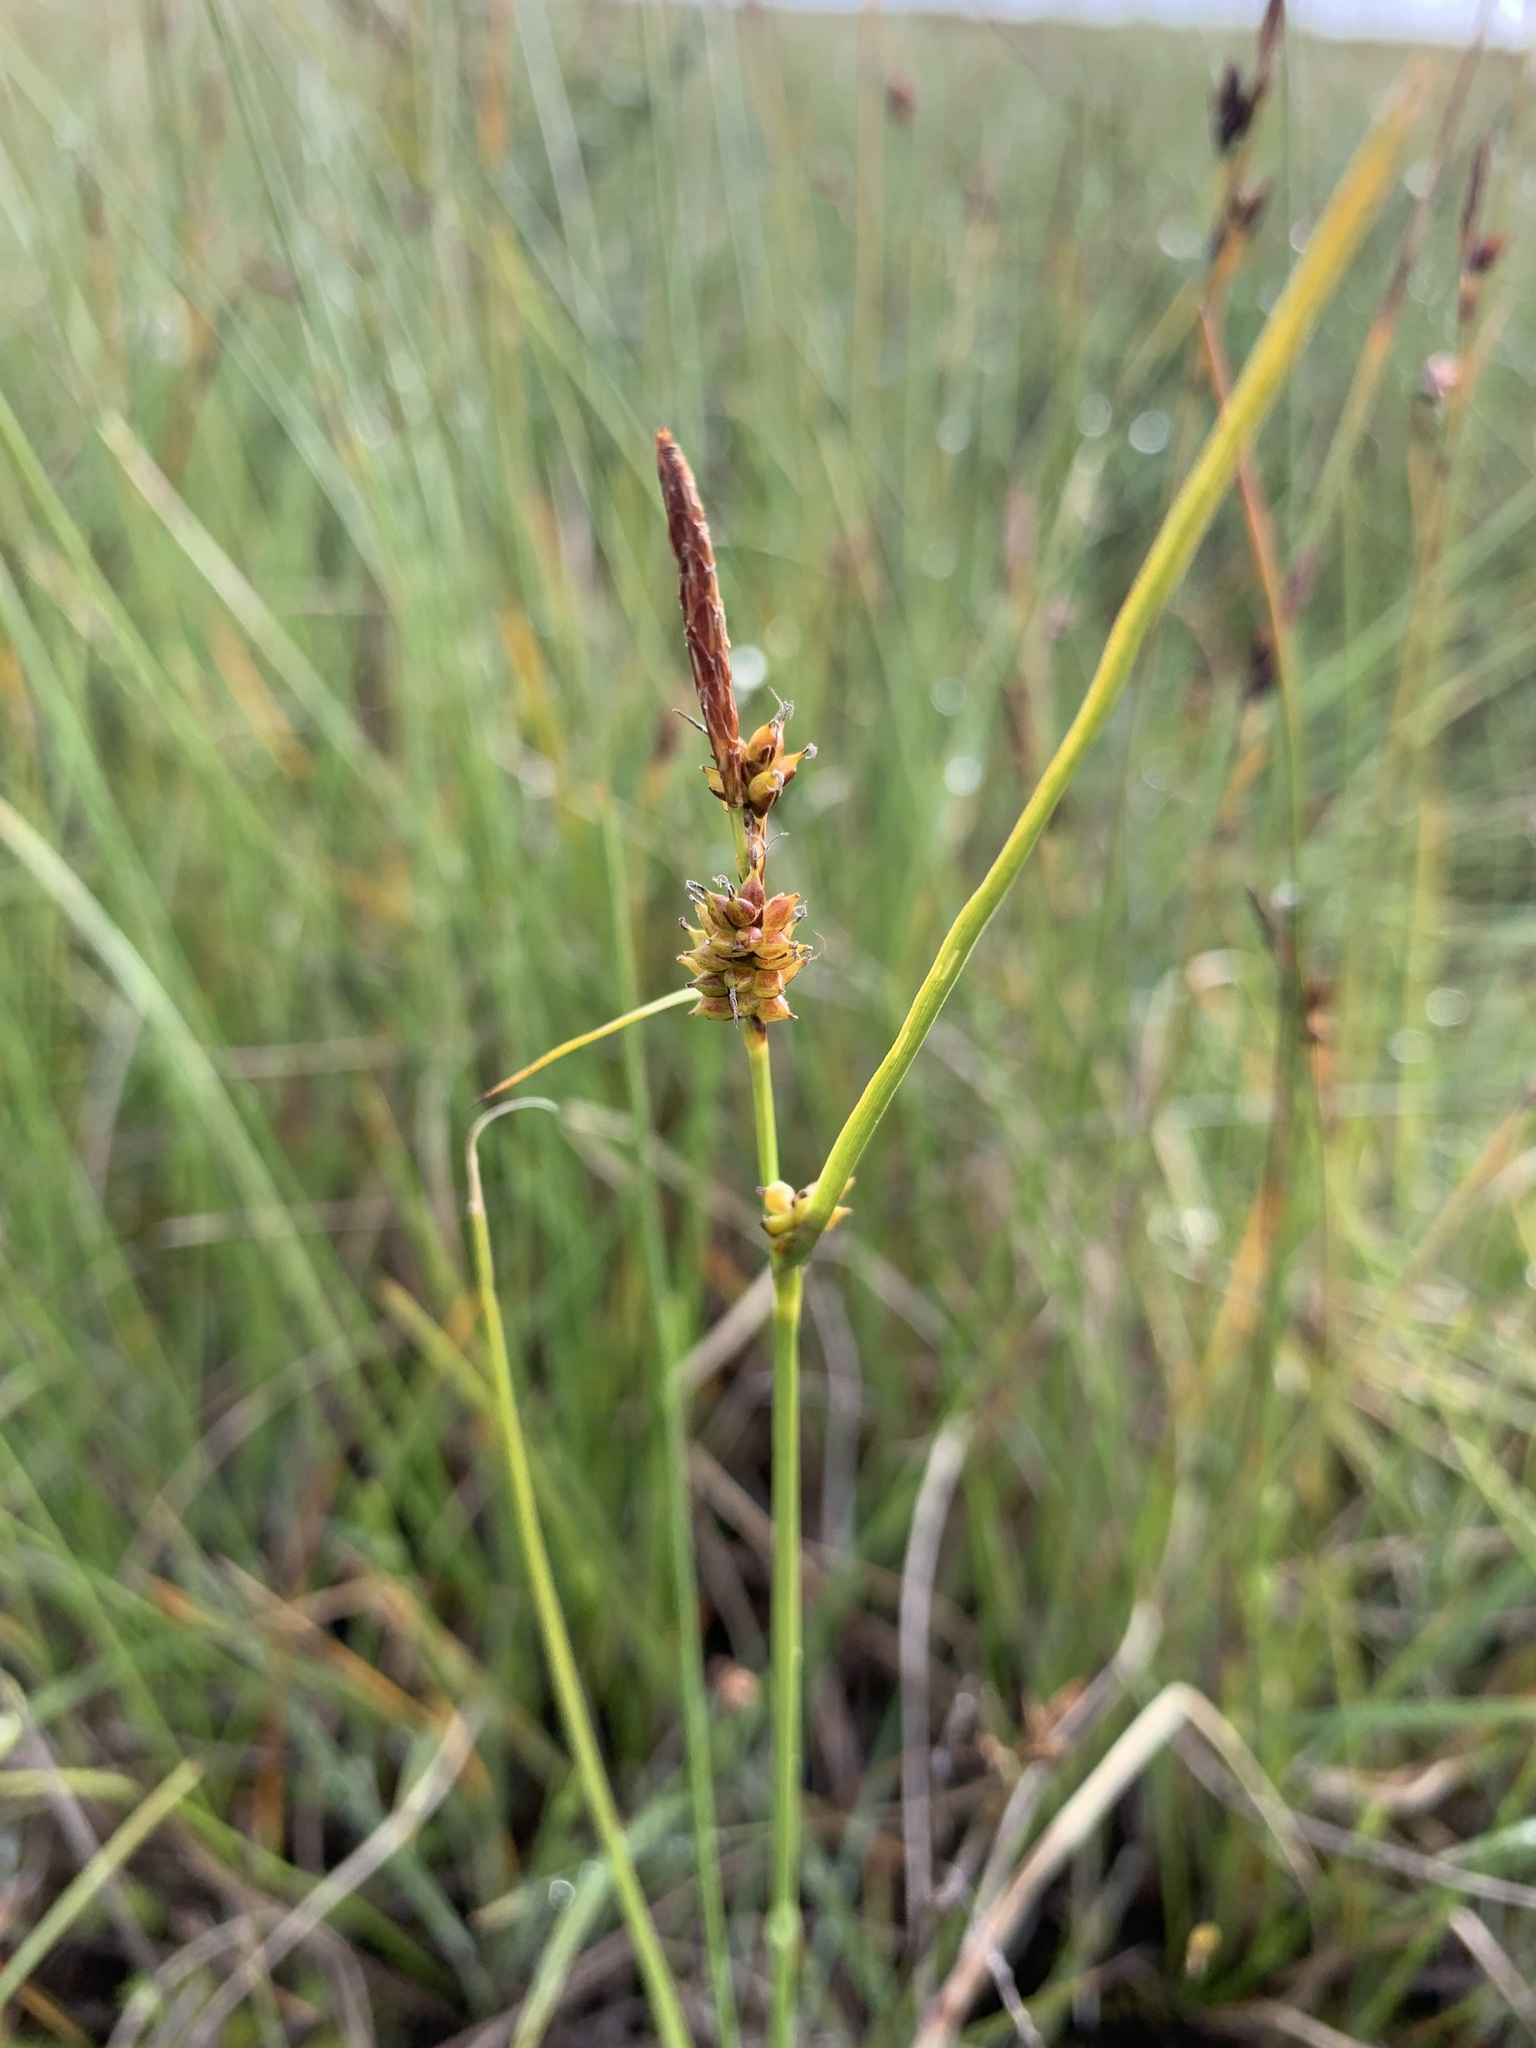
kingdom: Plantae
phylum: Tracheophyta
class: Liliopsida
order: Poales
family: Cyperaceae
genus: Carex
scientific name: Carex rotundata
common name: Round-fruited sedge
